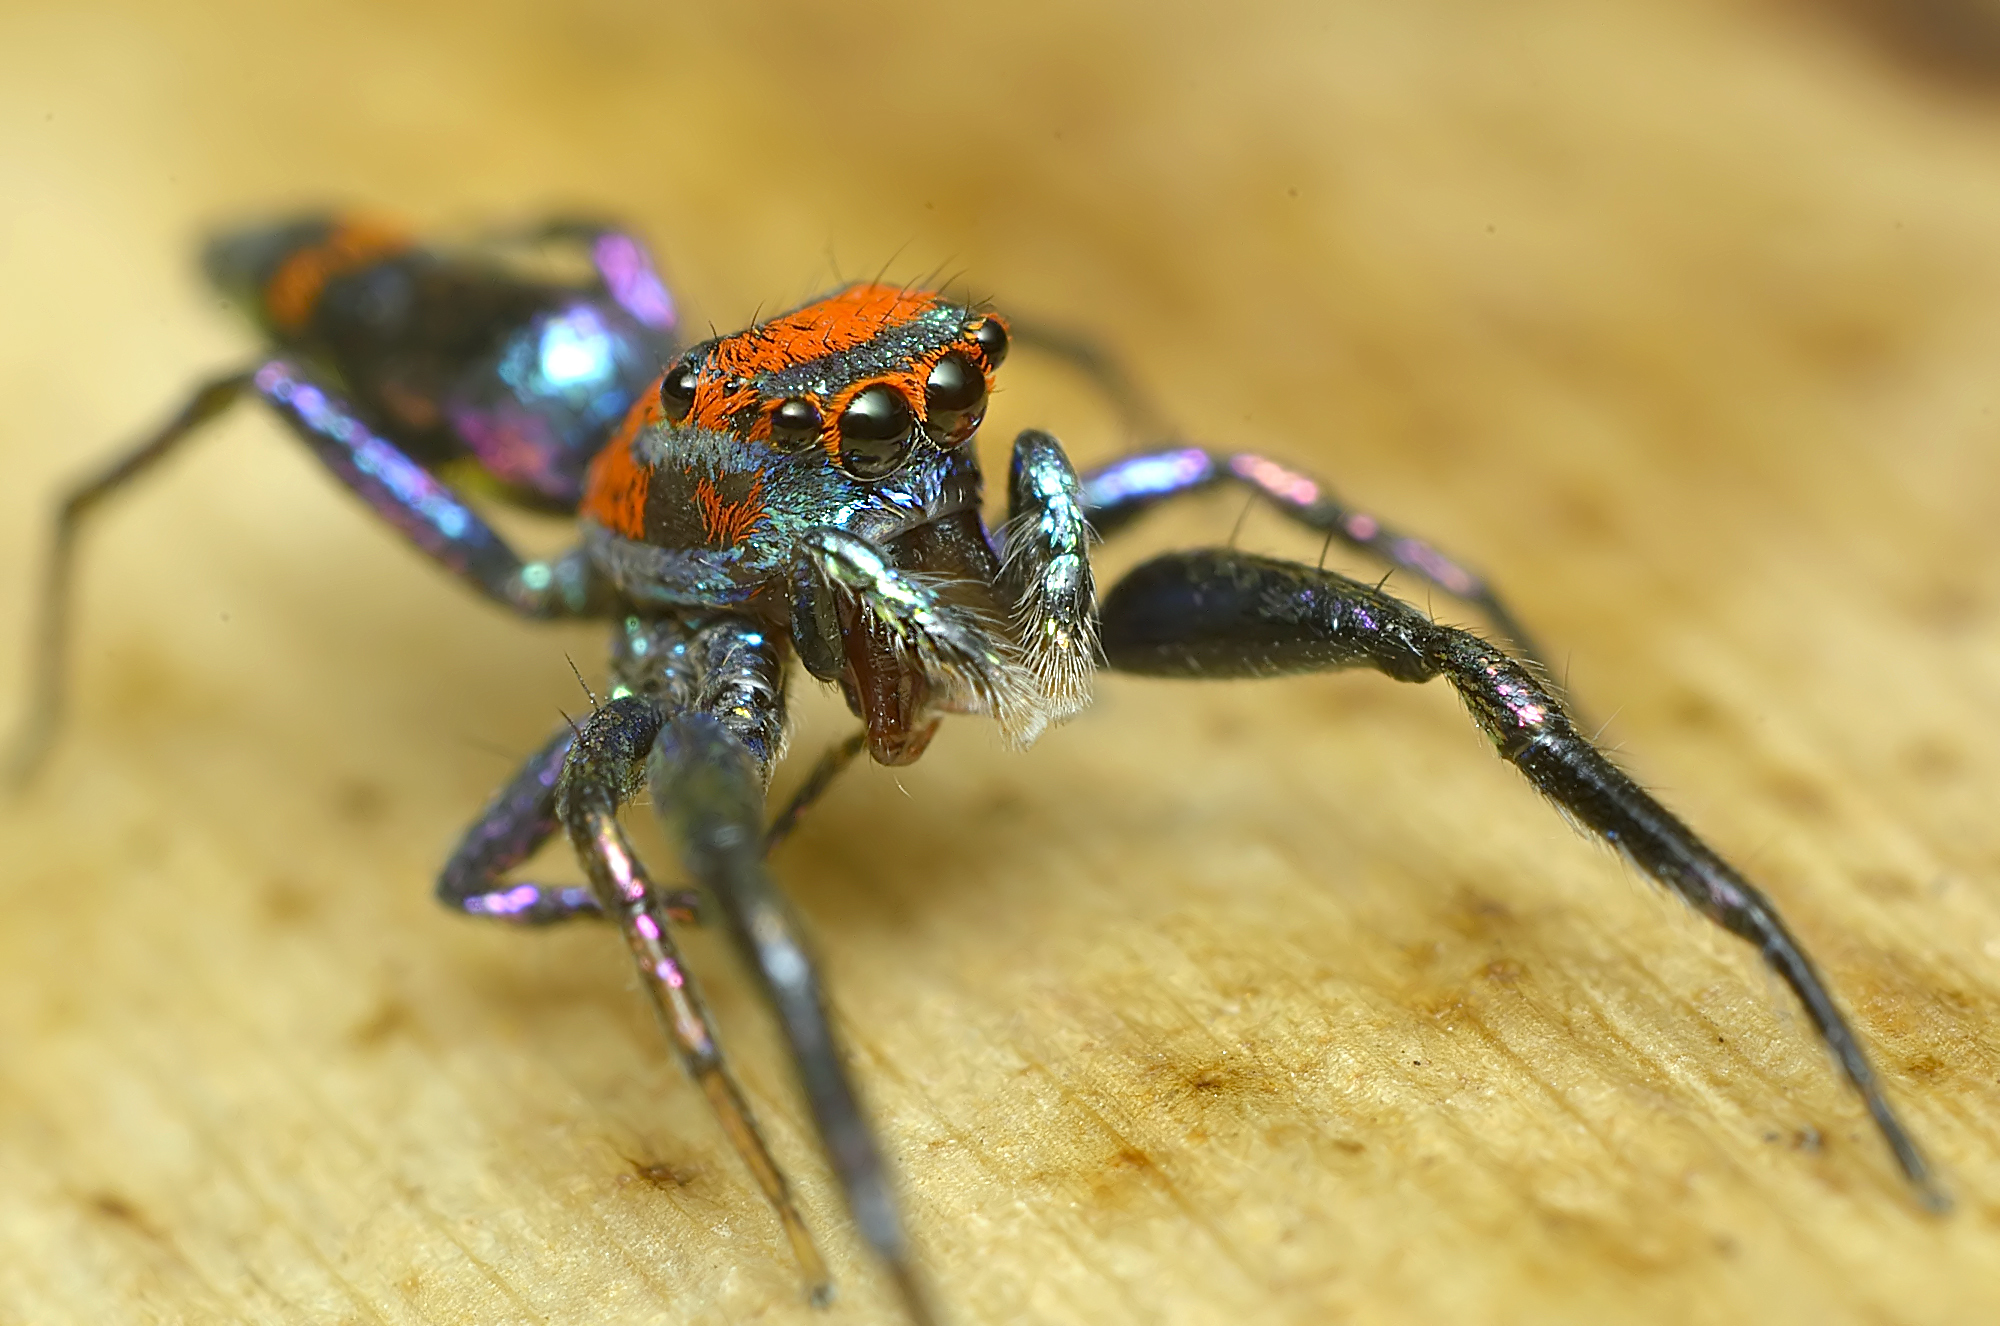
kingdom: Animalia
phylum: Arthropoda
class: Arachnida
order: Araneae
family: Salticidae
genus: Chrysilla
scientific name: Chrysilla volupe
